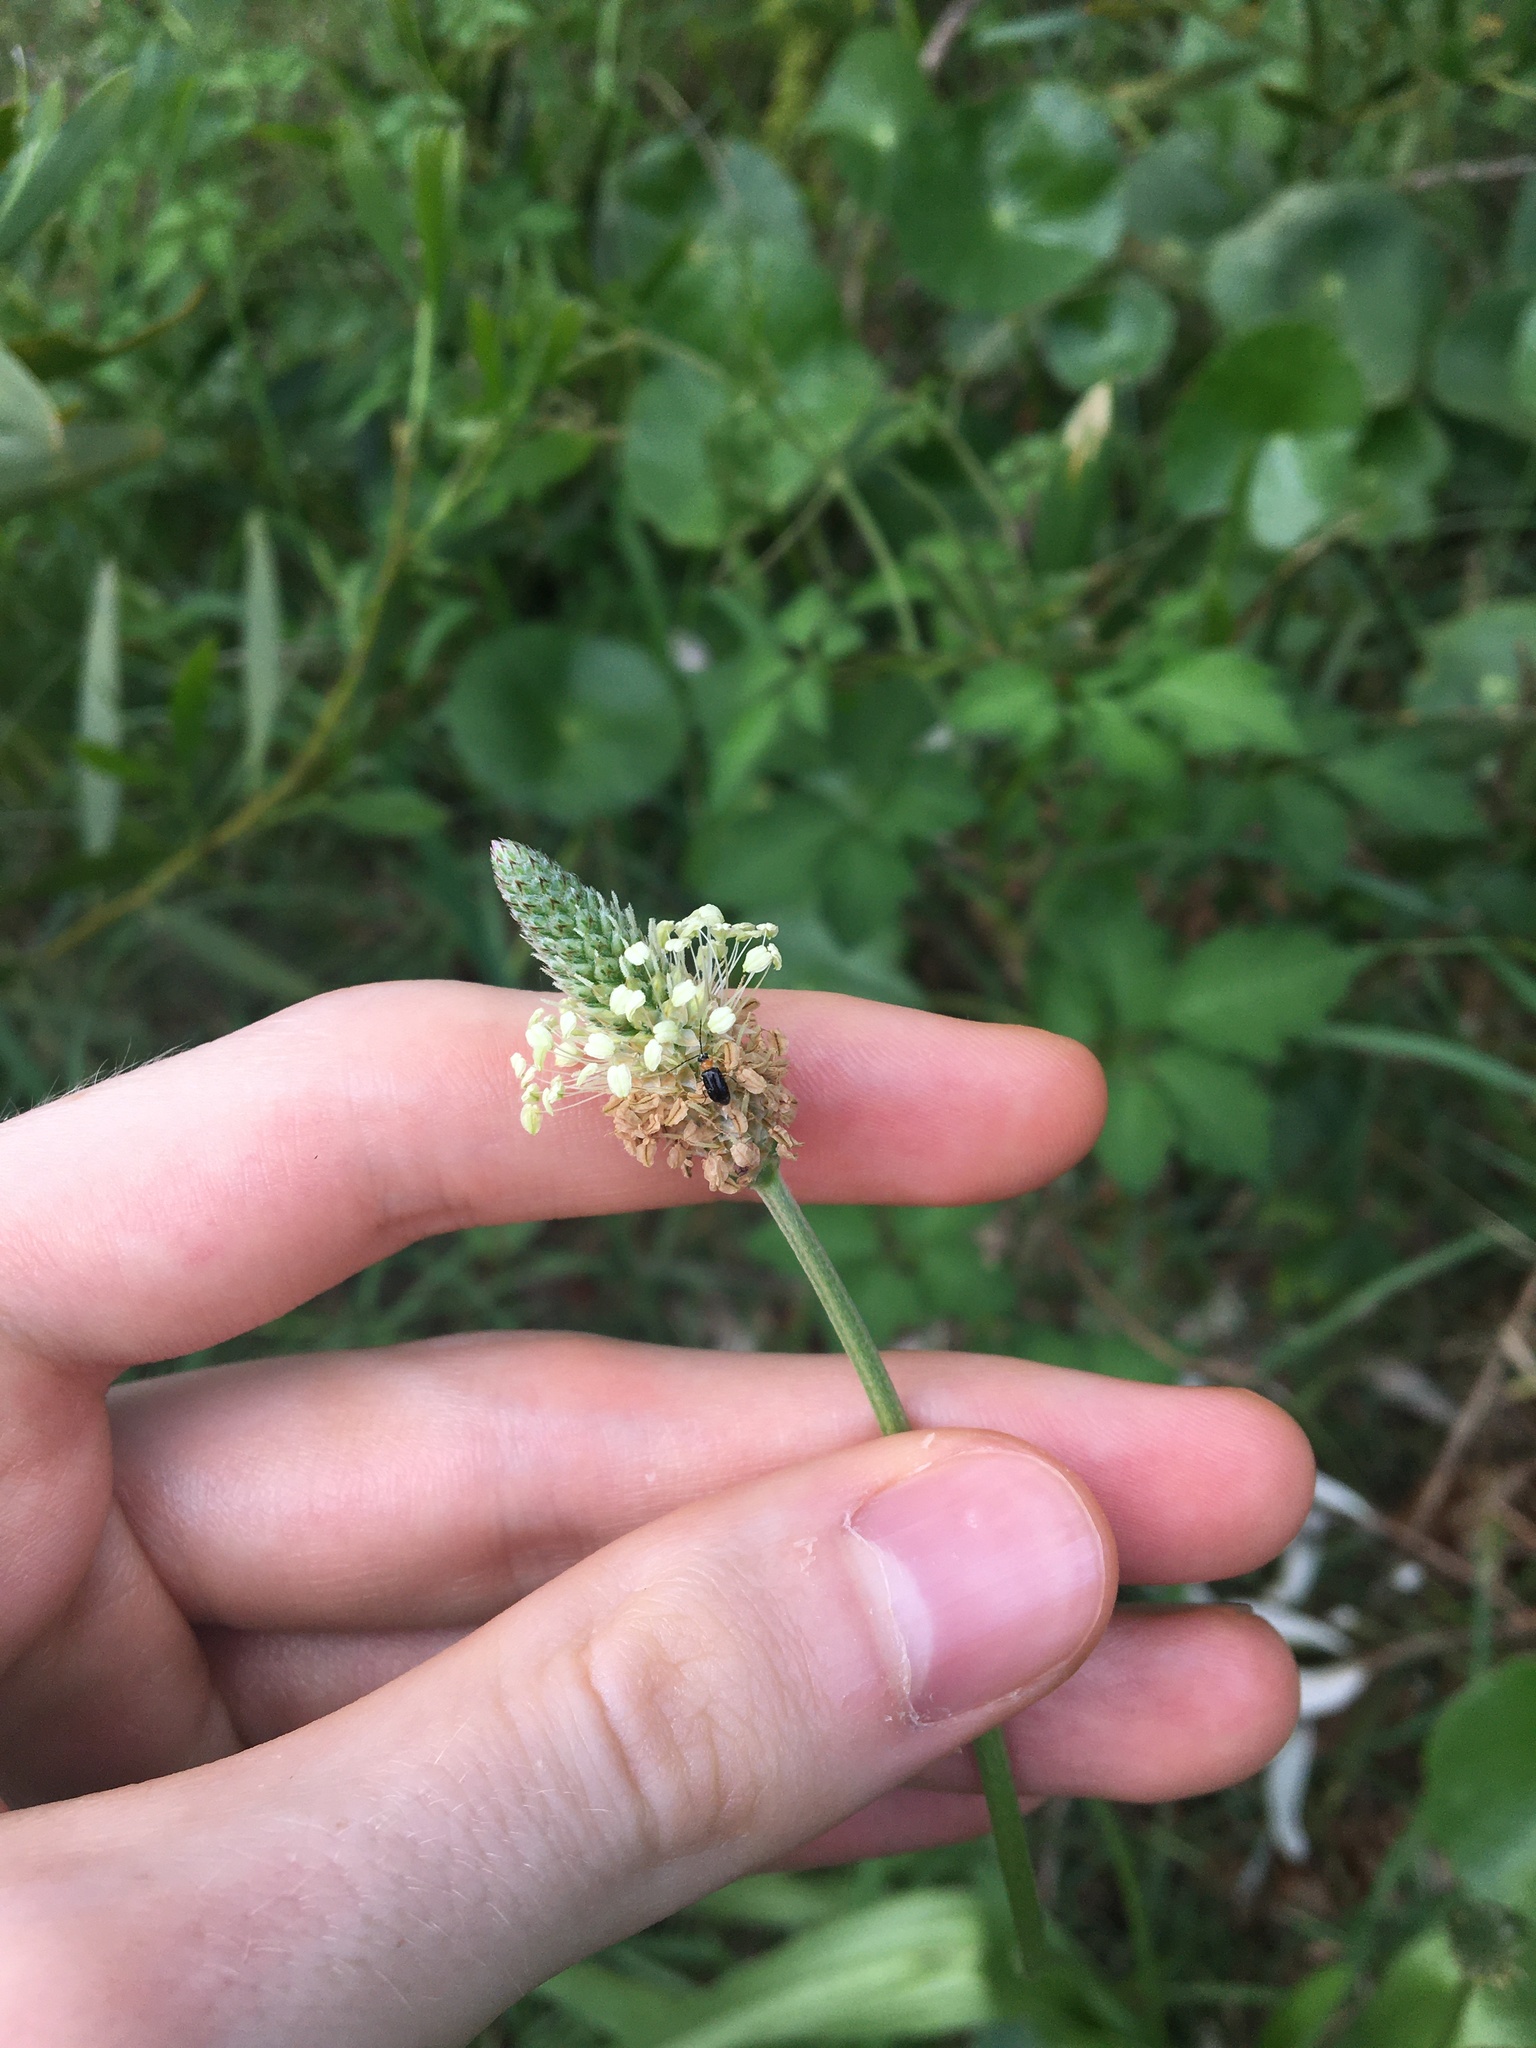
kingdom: Plantae
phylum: Tracheophyta
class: Magnoliopsida
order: Lamiales
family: Plantaginaceae
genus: Plantago
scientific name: Plantago lanceolata
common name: Ribwort plantain
